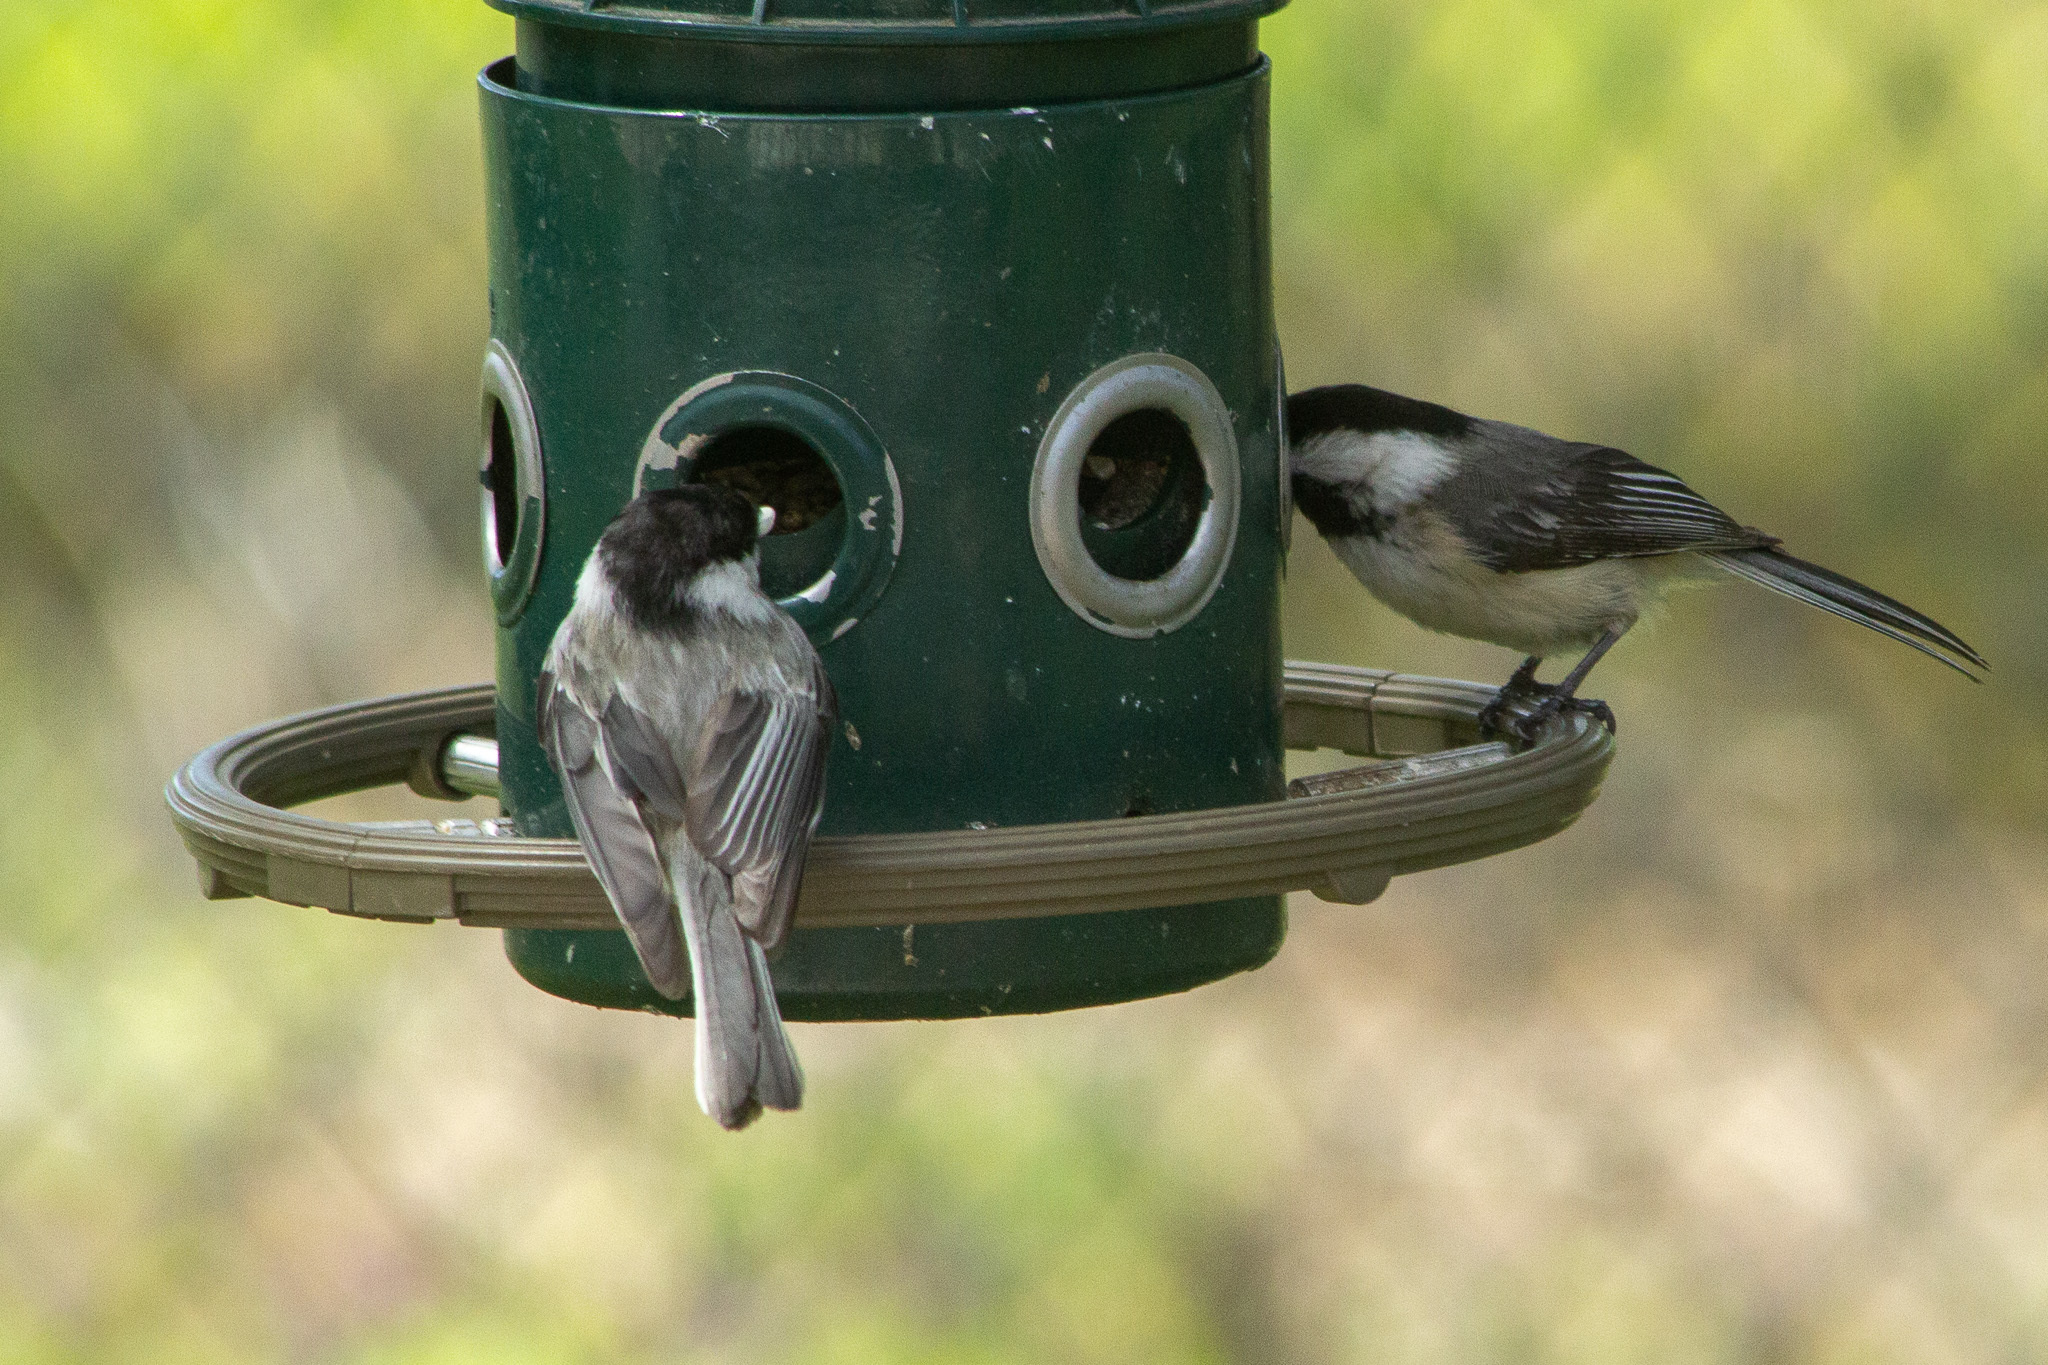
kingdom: Animalia
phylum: Chordata
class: Aves
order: Passeriformes
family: Paridae
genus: Poecile
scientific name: Poecile atricapillus
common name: Black-capped chickadee
